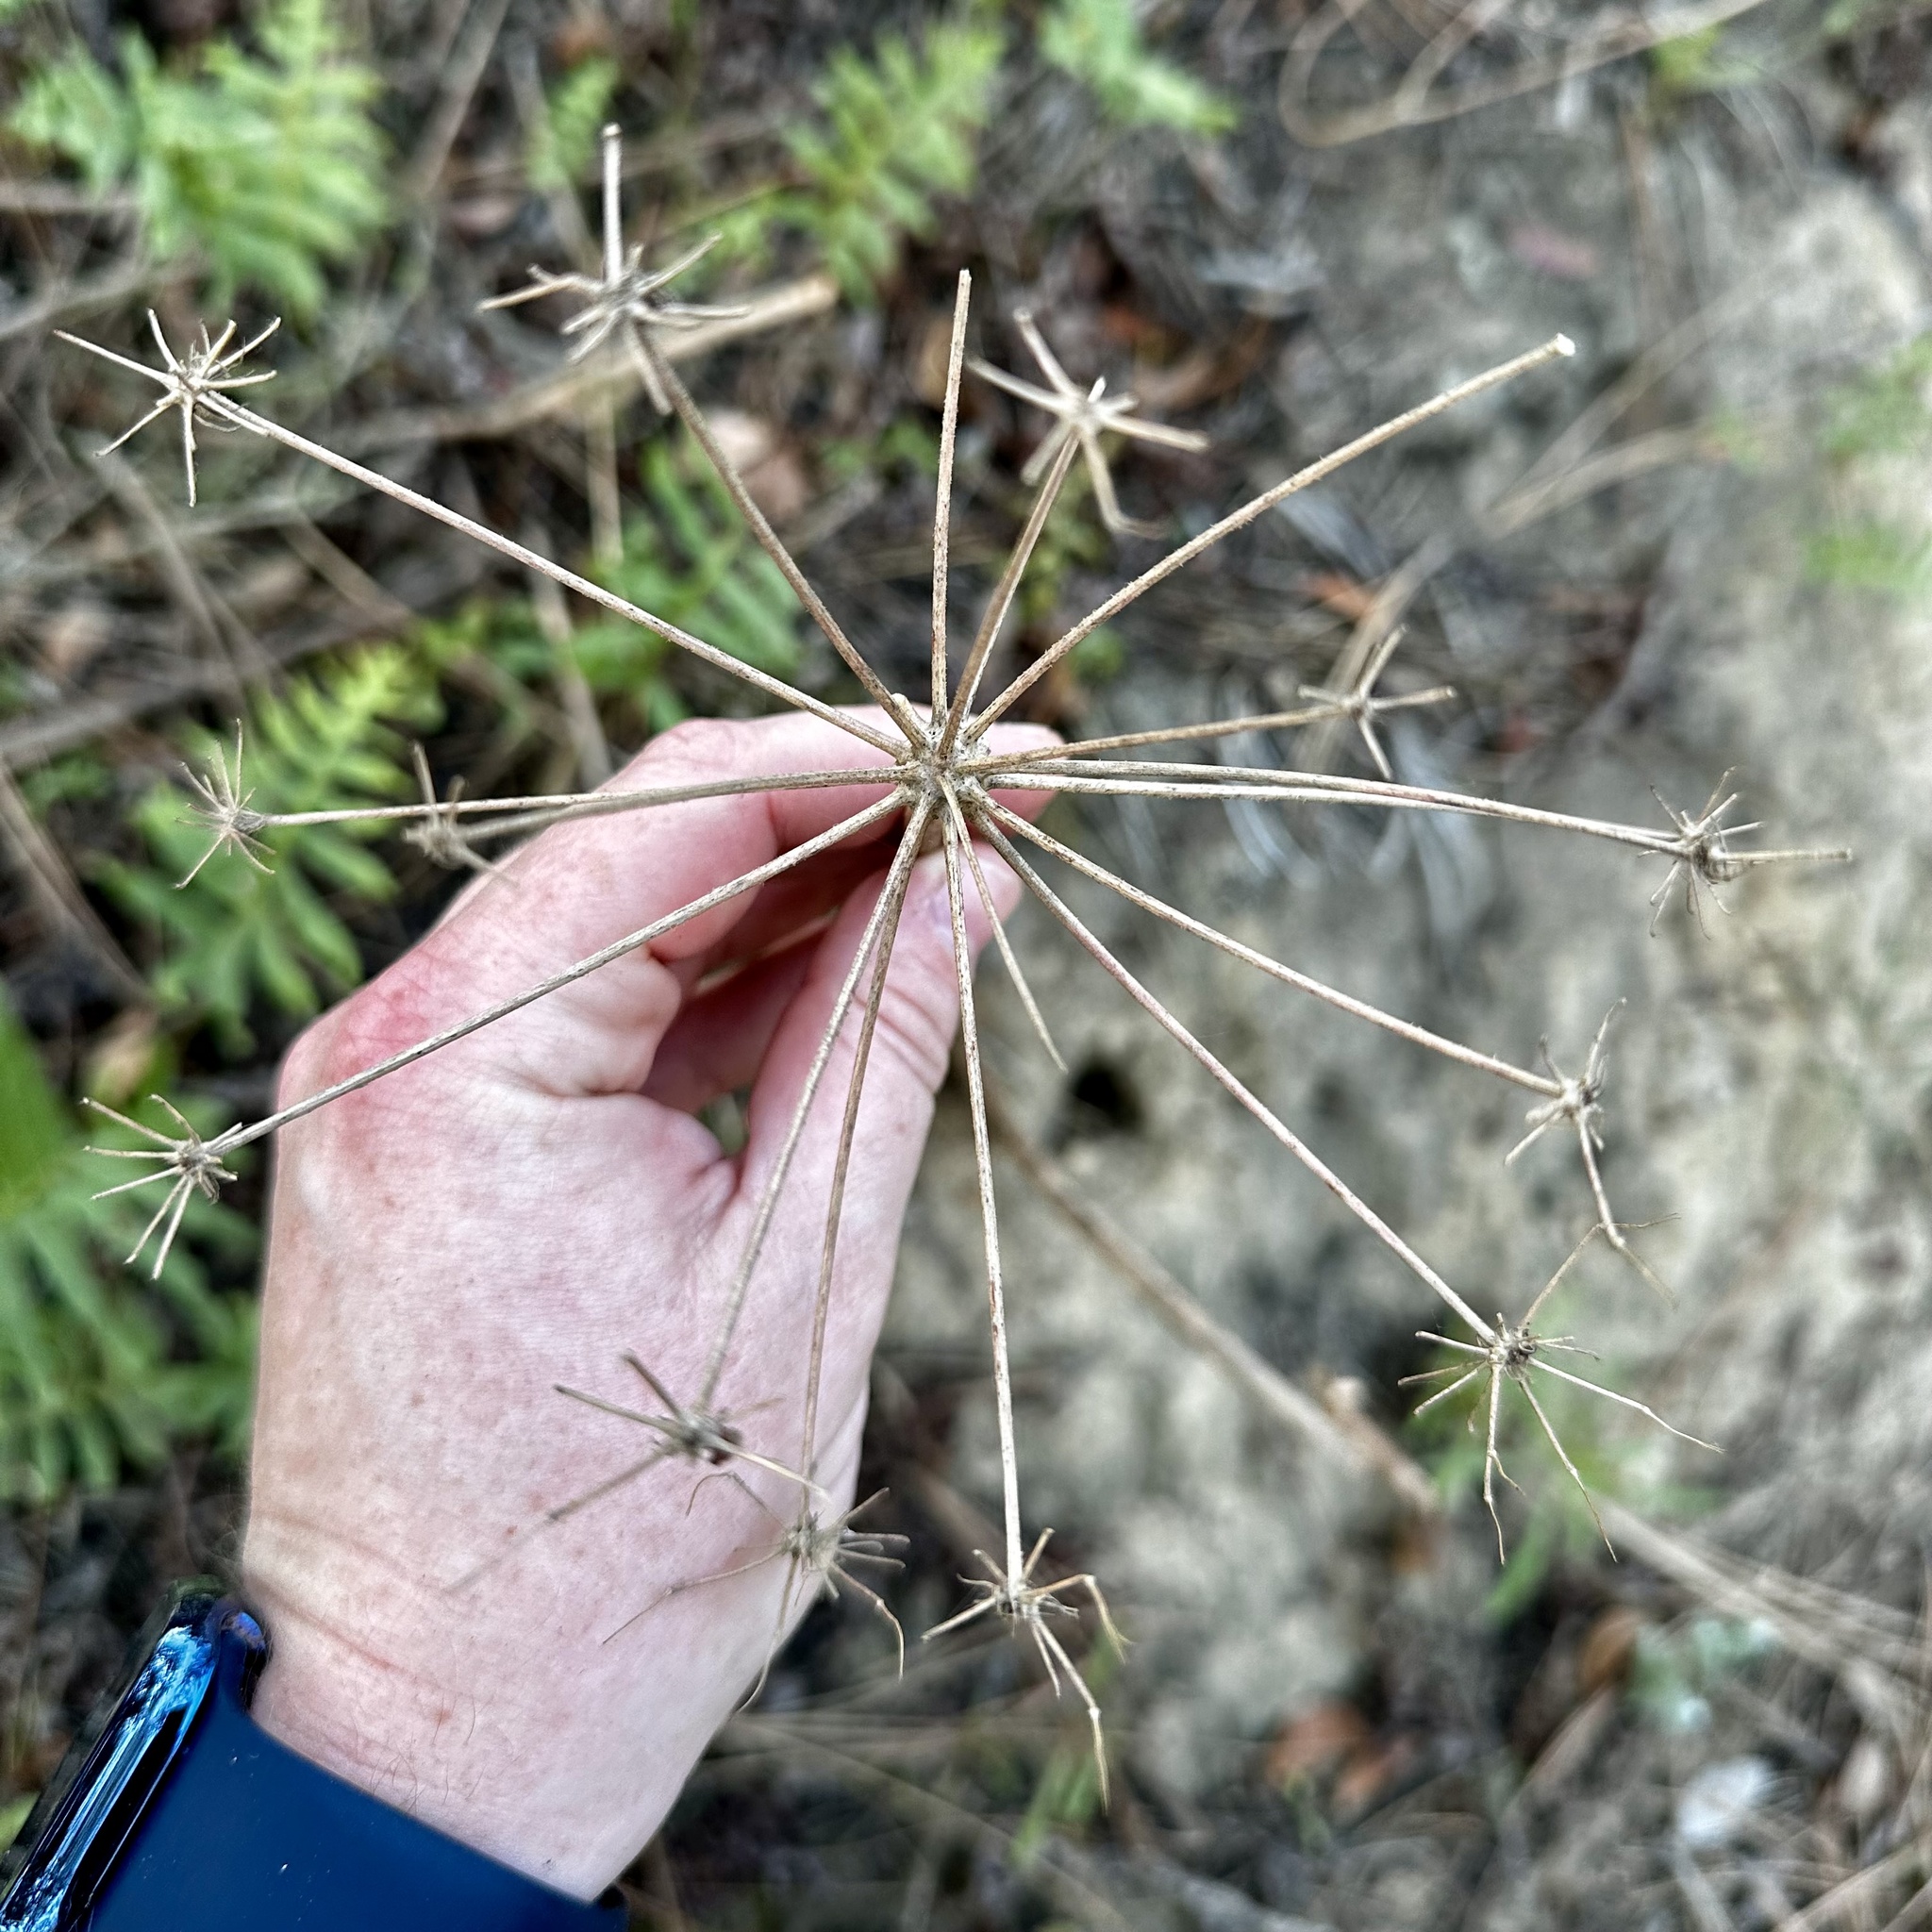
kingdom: Plantae
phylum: Tracheophyta
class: Magnoliopsida
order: Apiales
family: Apiaceae
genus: Lomatium
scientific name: Lomatium lucidum
